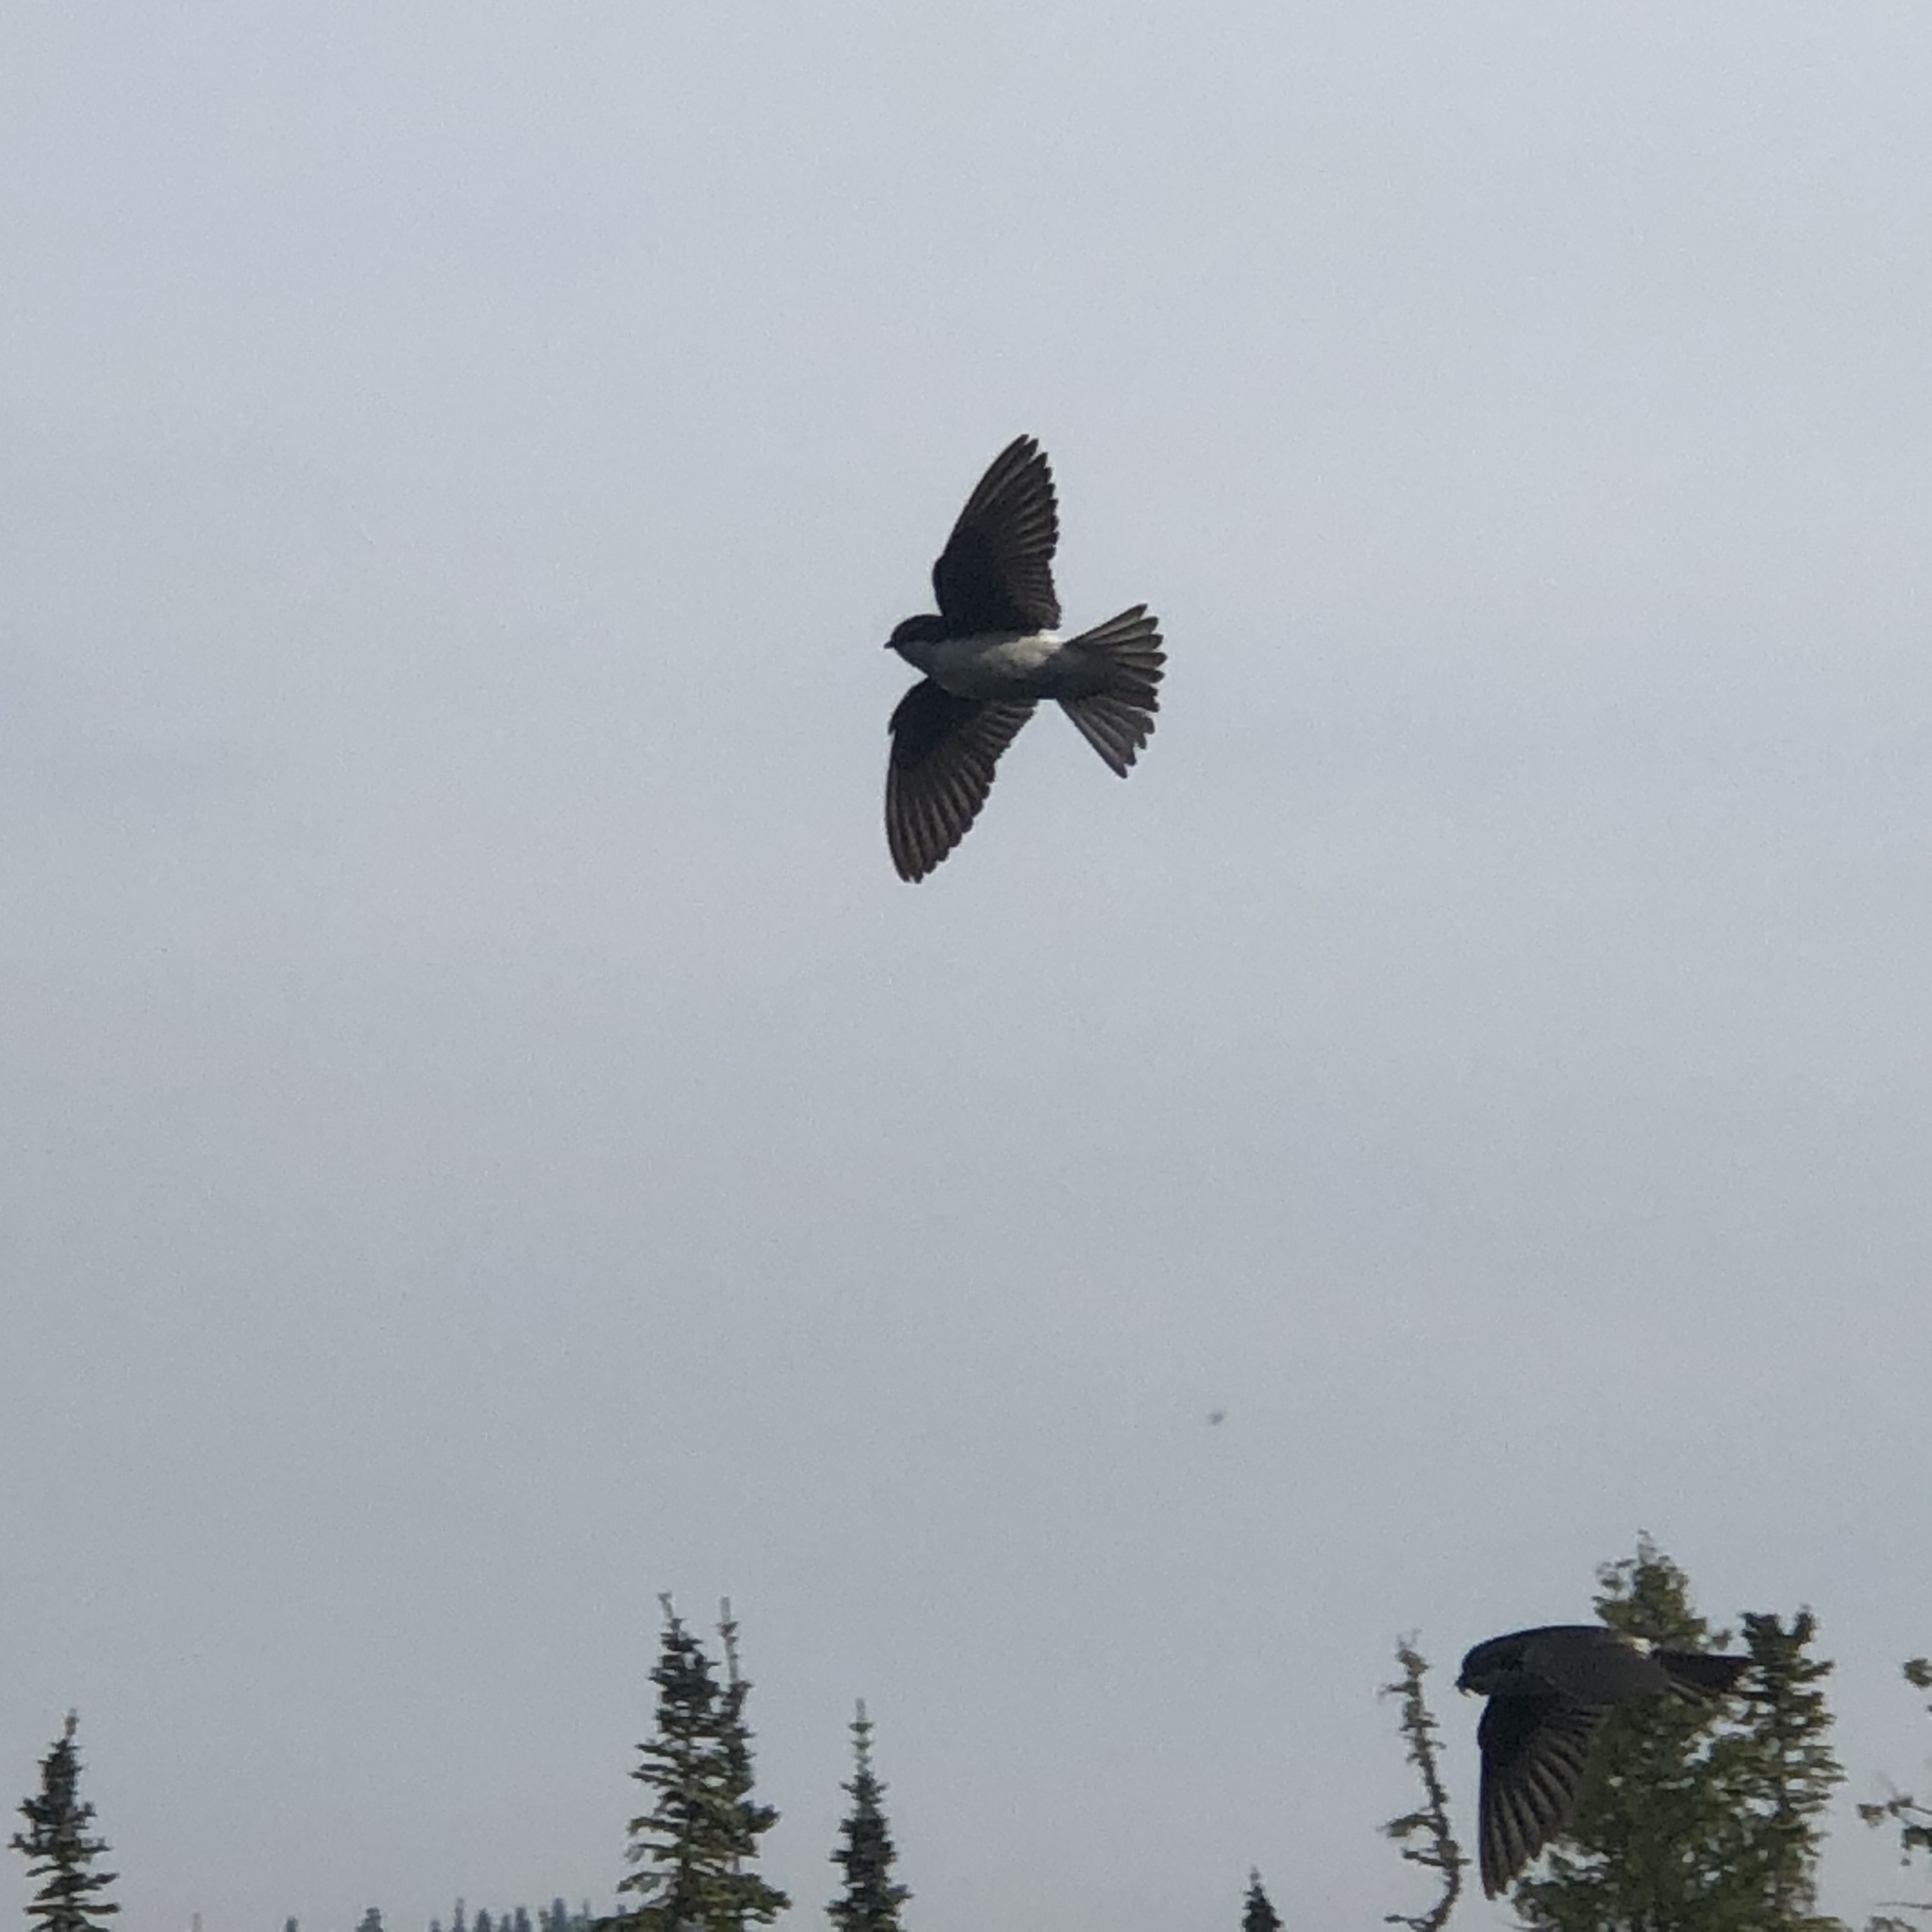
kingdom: Animalia
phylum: Chordata
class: Aves
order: Passeriformes
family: Hirundinidae
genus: Tachycineta
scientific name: Tachycineta bicolor
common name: Tree swallow
